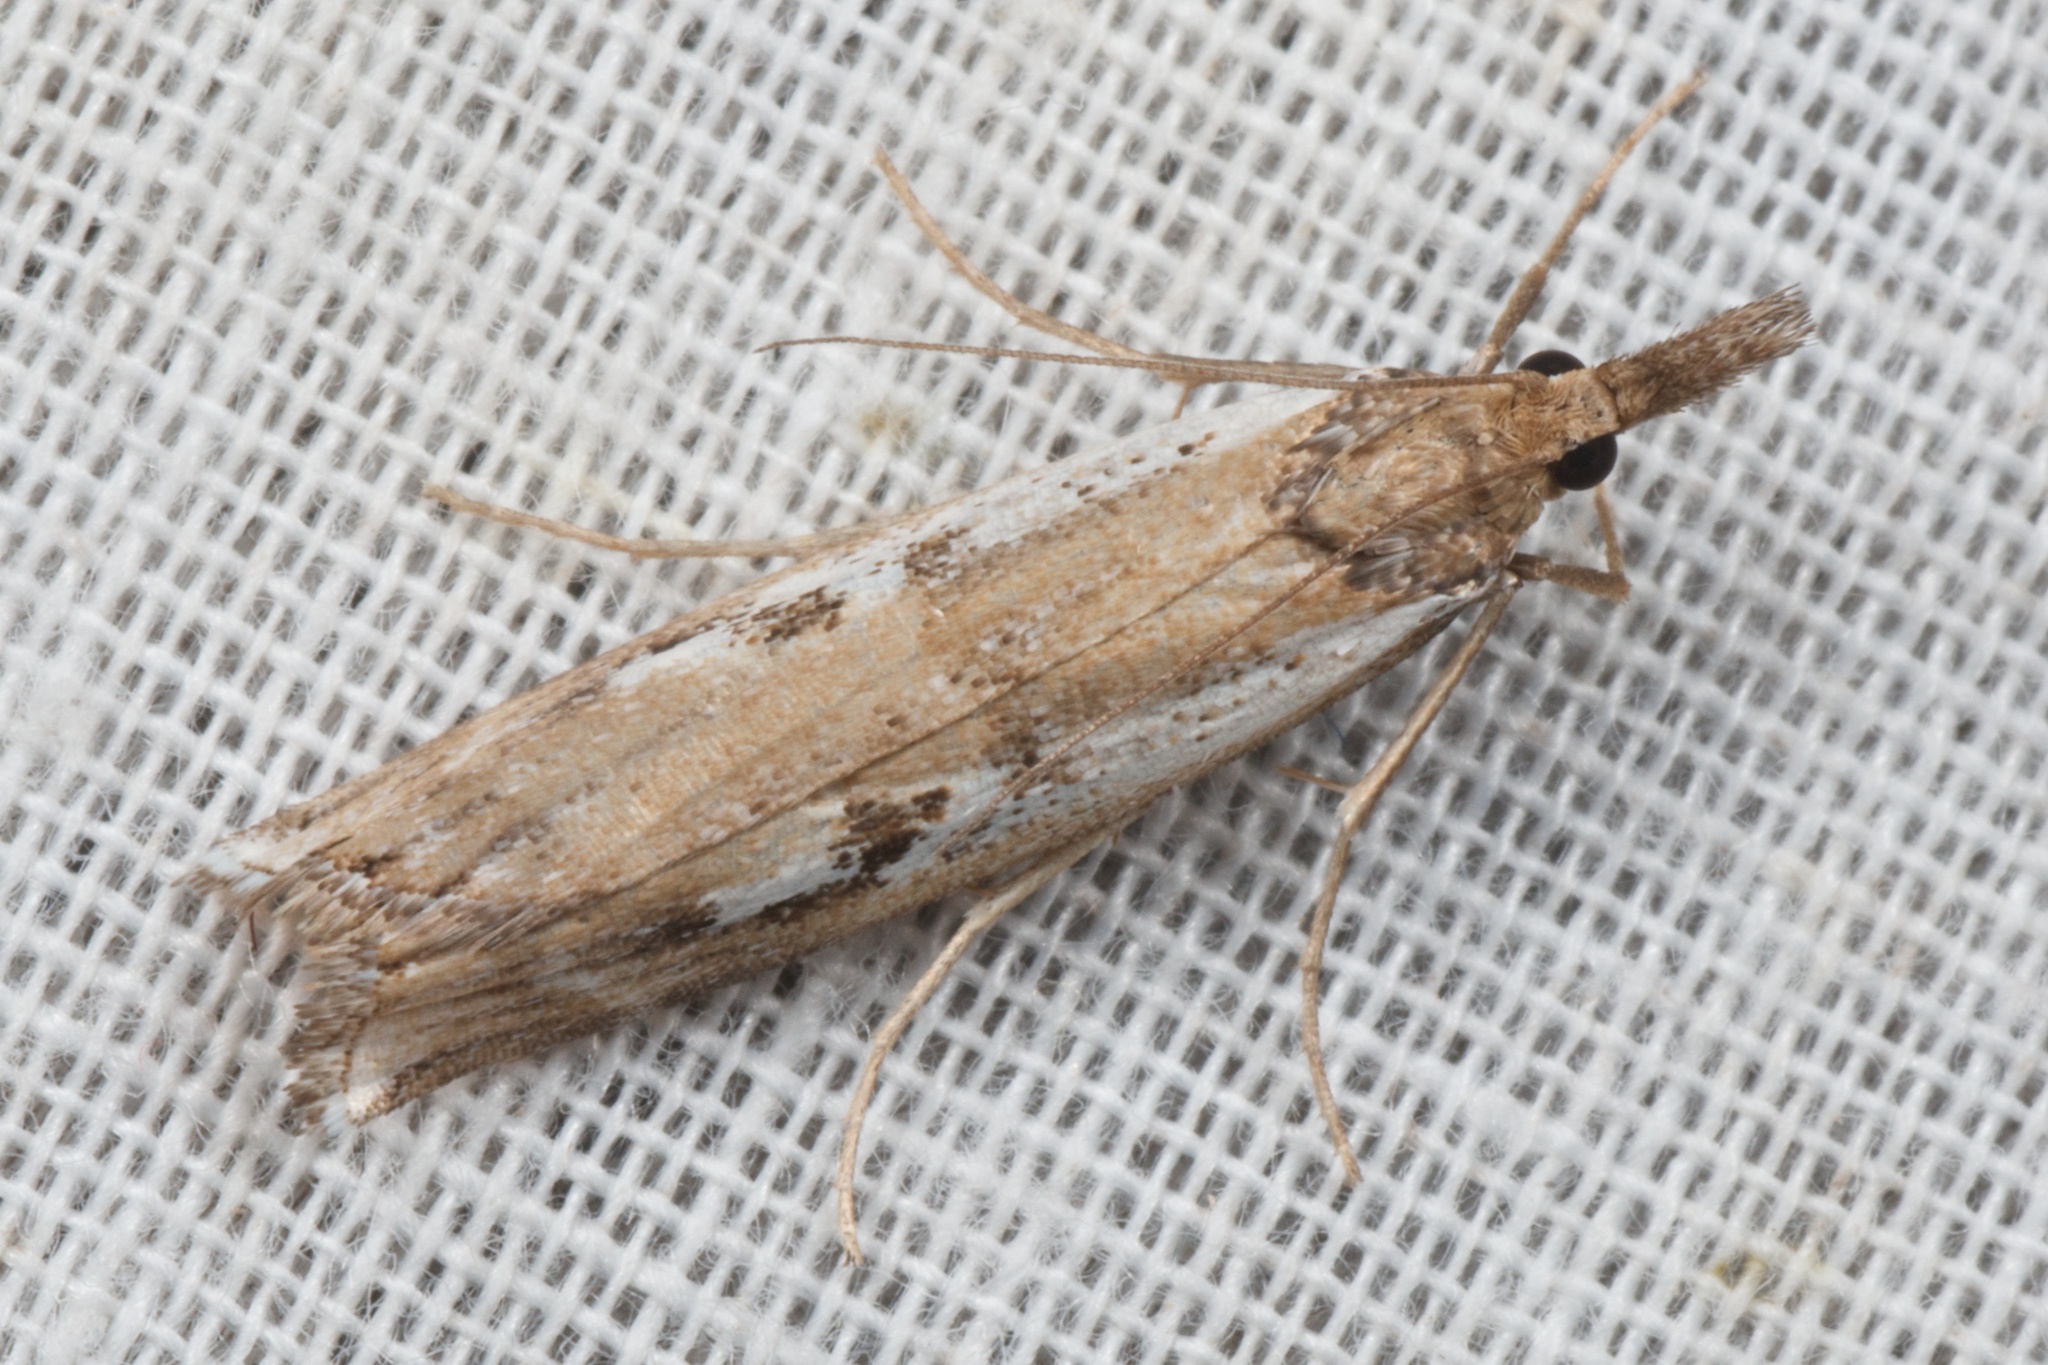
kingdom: Animalia
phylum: Arthropoda
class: Insecta
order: Lepidoptera
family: Crambidae
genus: Orocrambus
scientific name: Orocrambus vulgaris
